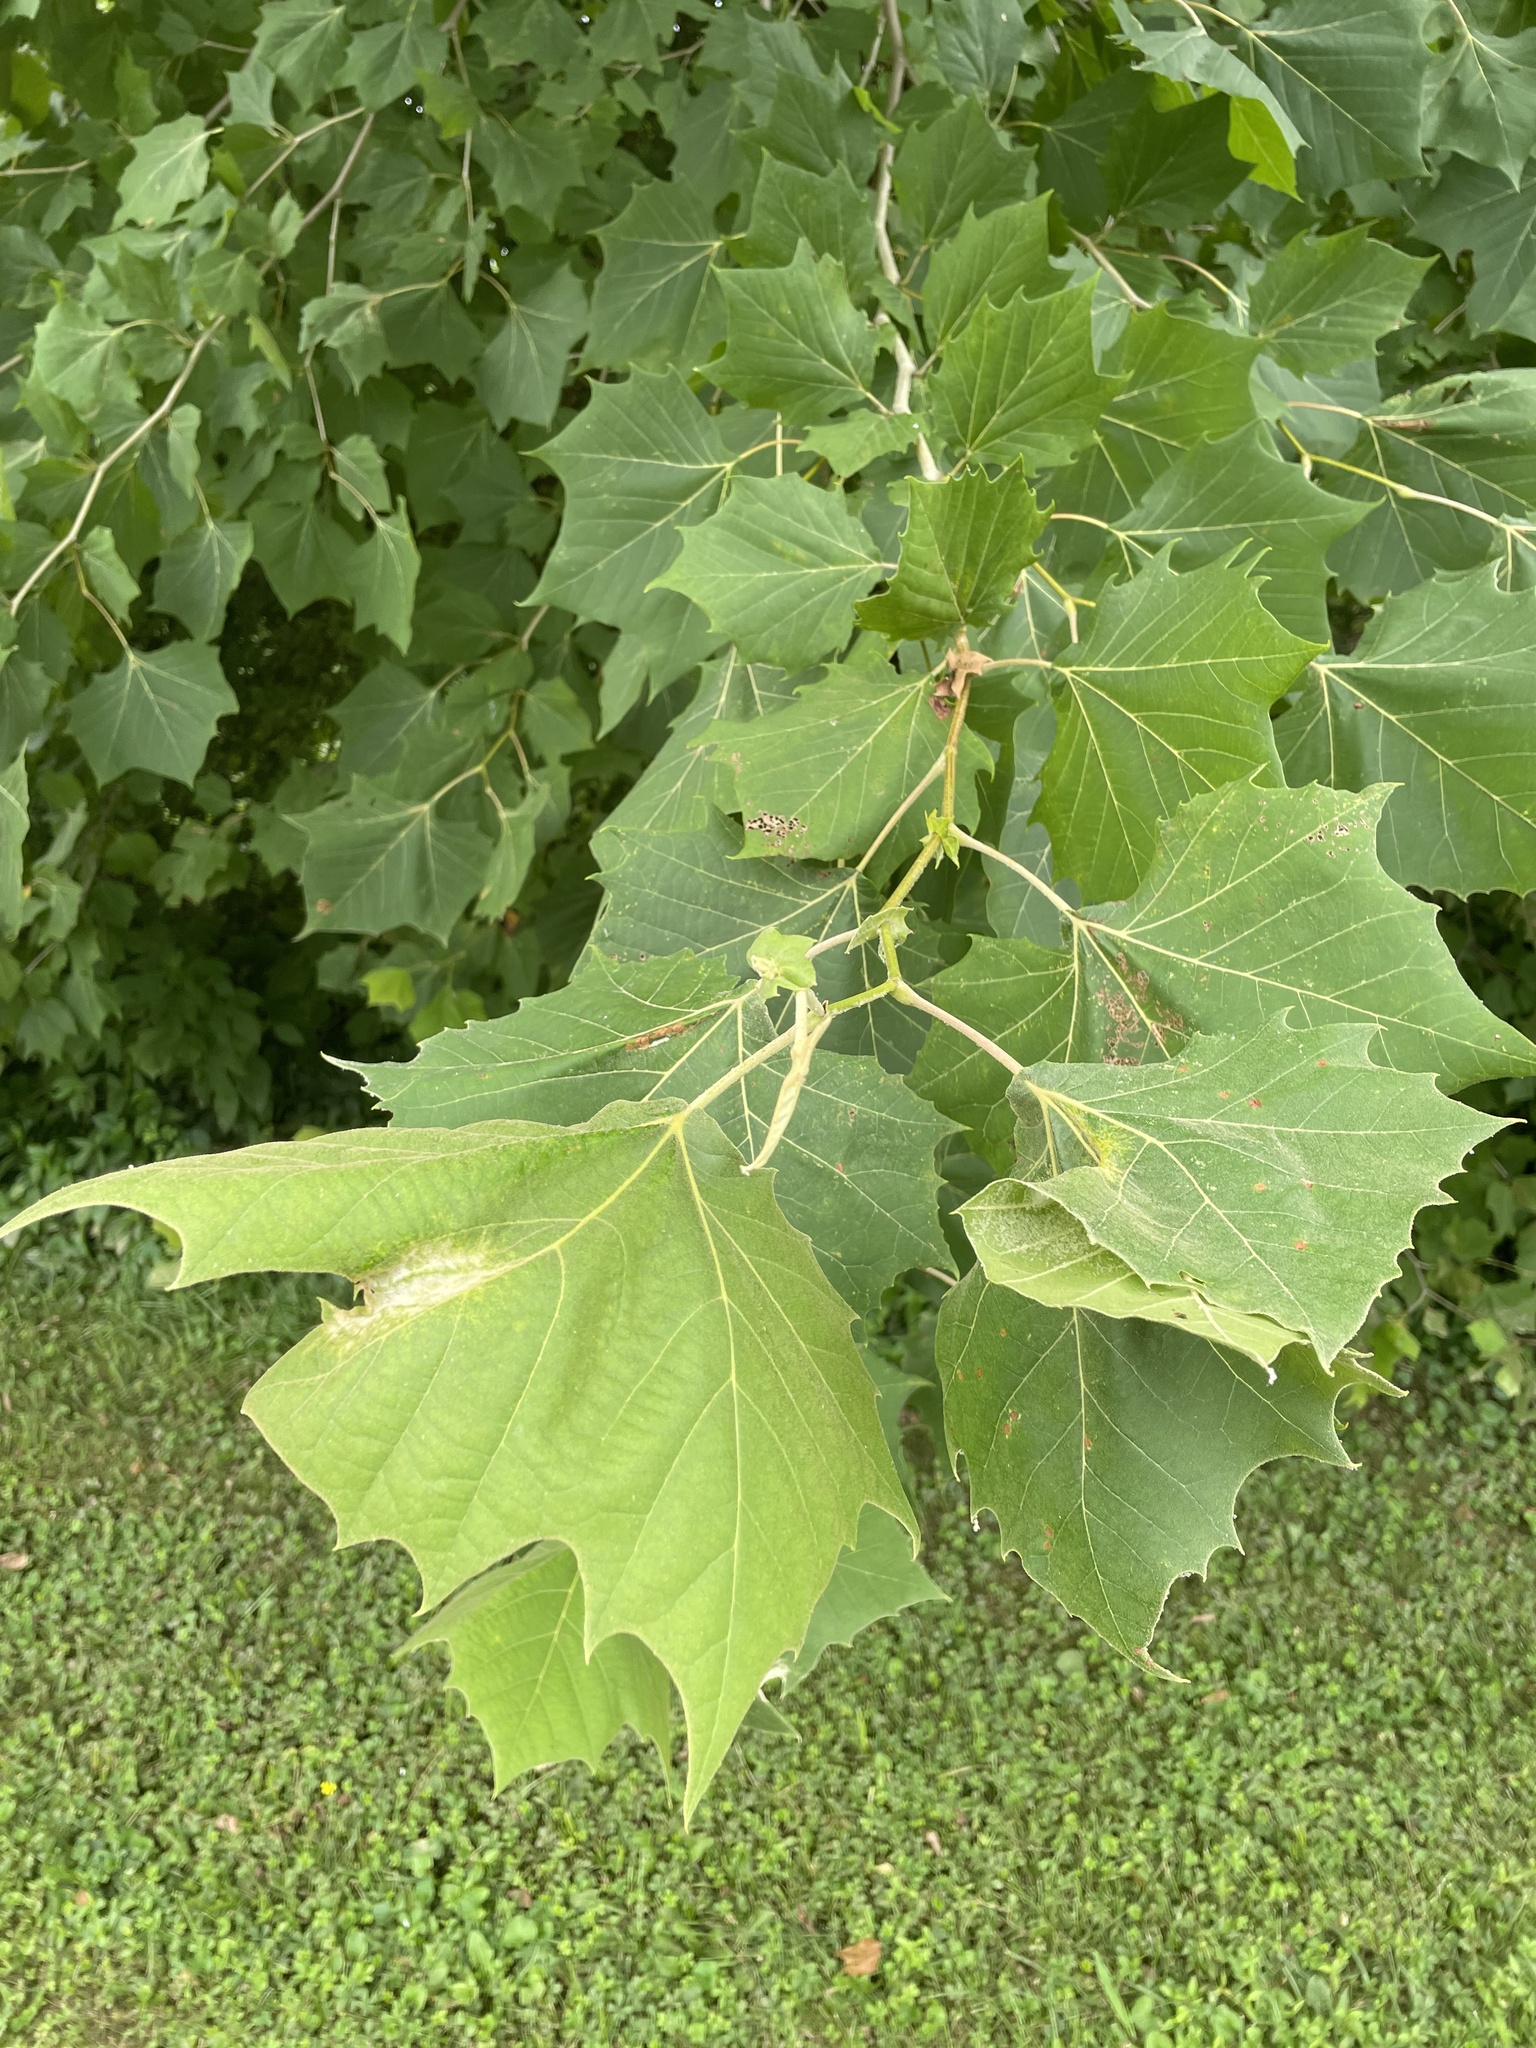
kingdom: Plantae
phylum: Tracheophyta
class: Magnoliopsida
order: Proteales
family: Platanaceae
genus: Platanus
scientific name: Platanus occidentalis
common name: American sycamore
